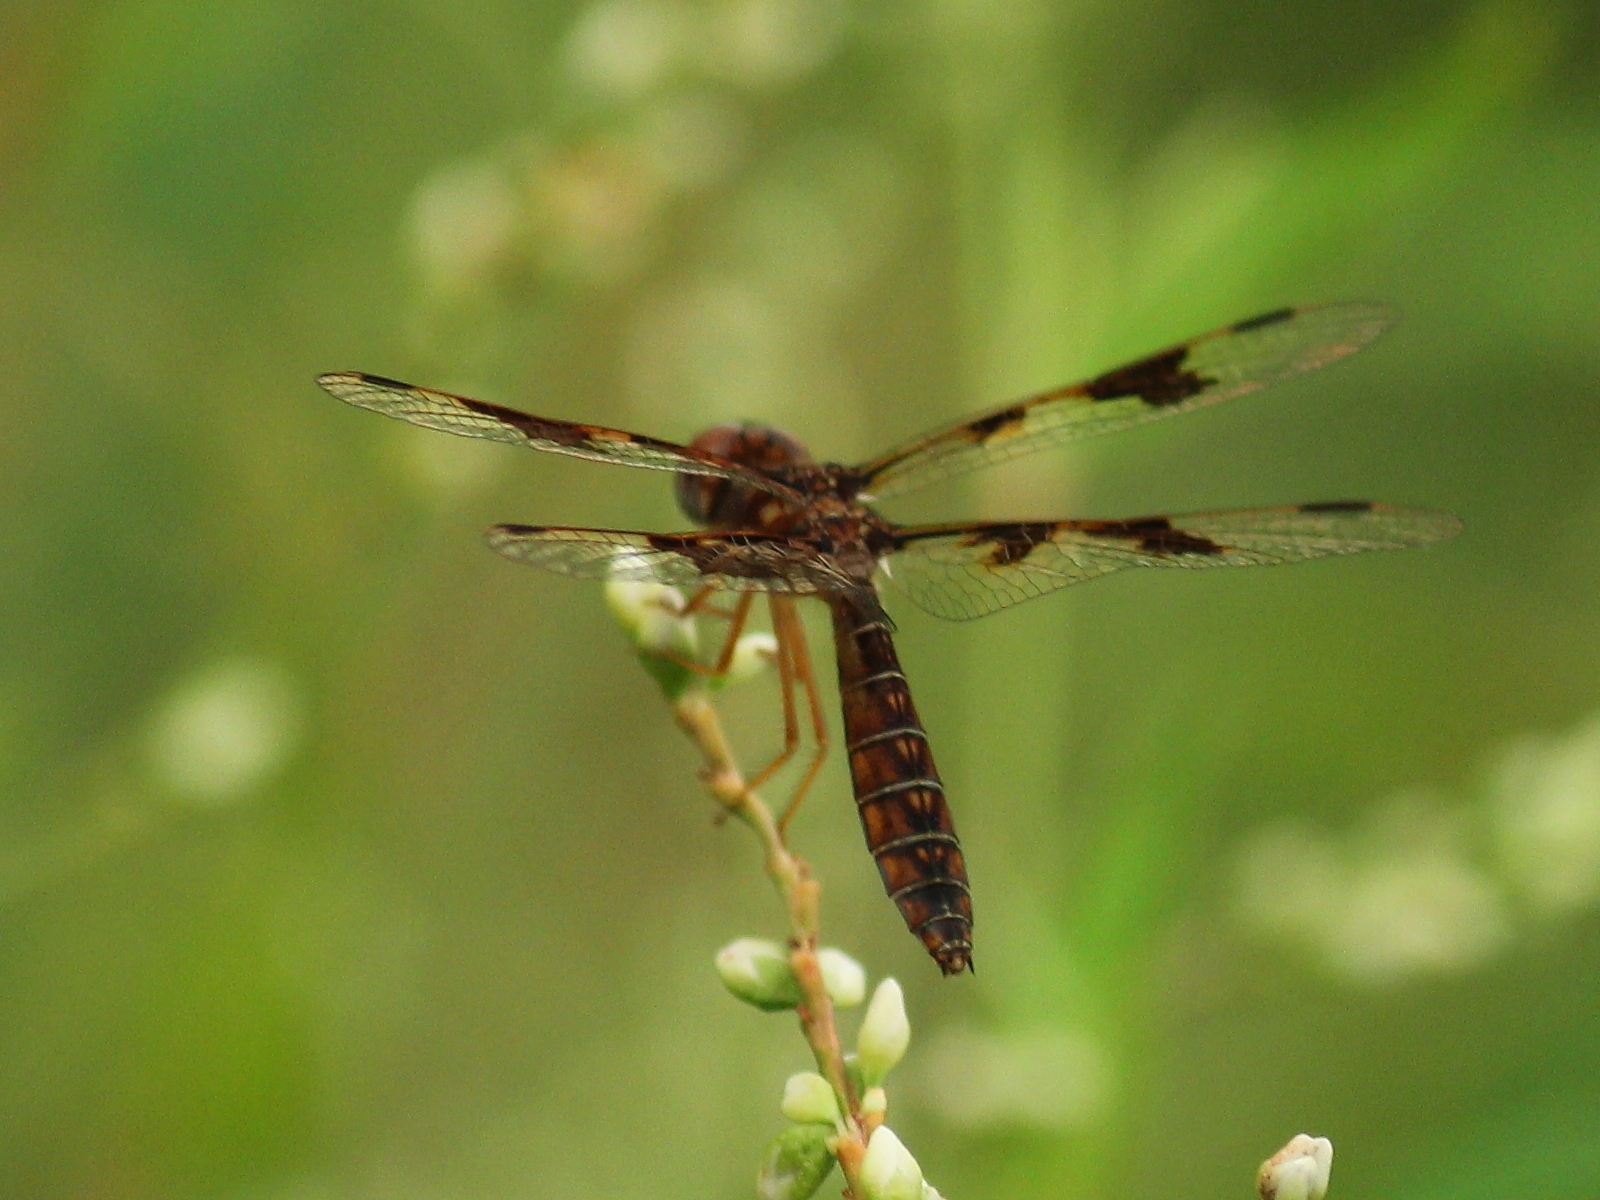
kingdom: Animalia
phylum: Arthropoda
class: Insecta
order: Odonata
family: Libellulidae
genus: Perithemis
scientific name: Perithemis tenera
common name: Eastern amberwing
